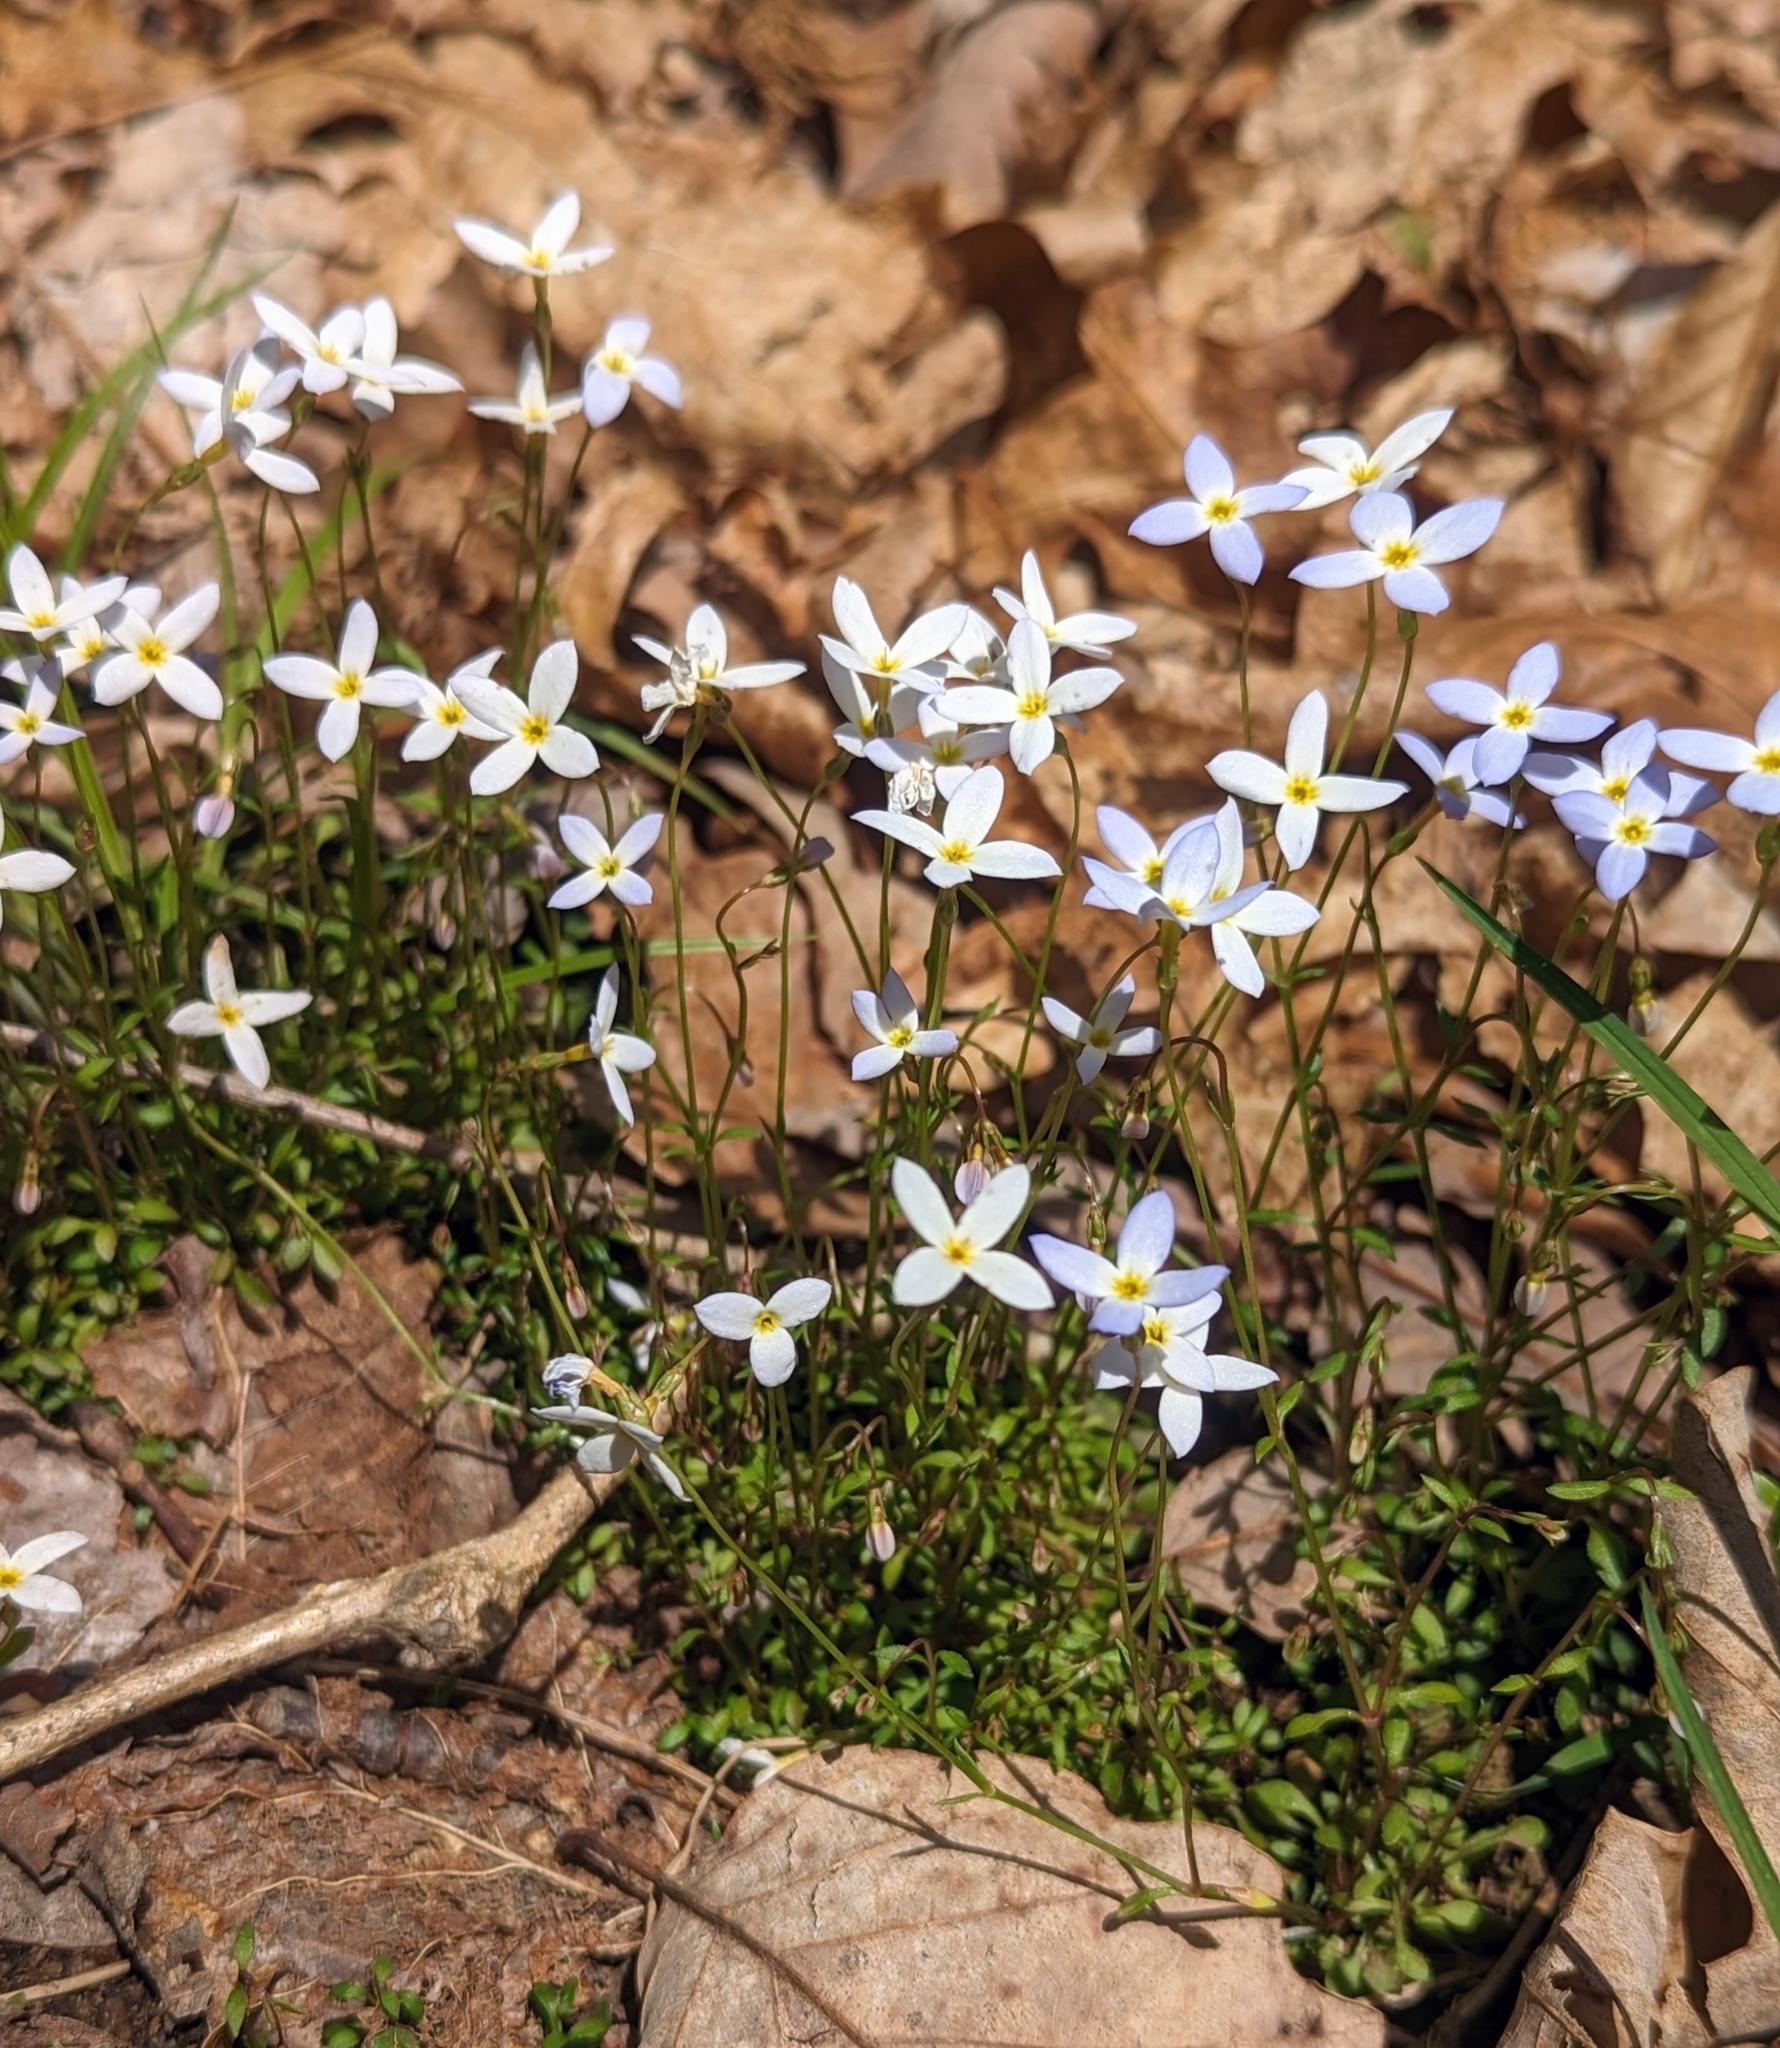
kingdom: Plantae
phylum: Tracheophyta
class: Magnoliopsida
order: Gentianales
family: Rubiaceae
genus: Houstonia
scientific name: Houstonia serpyllifolia
